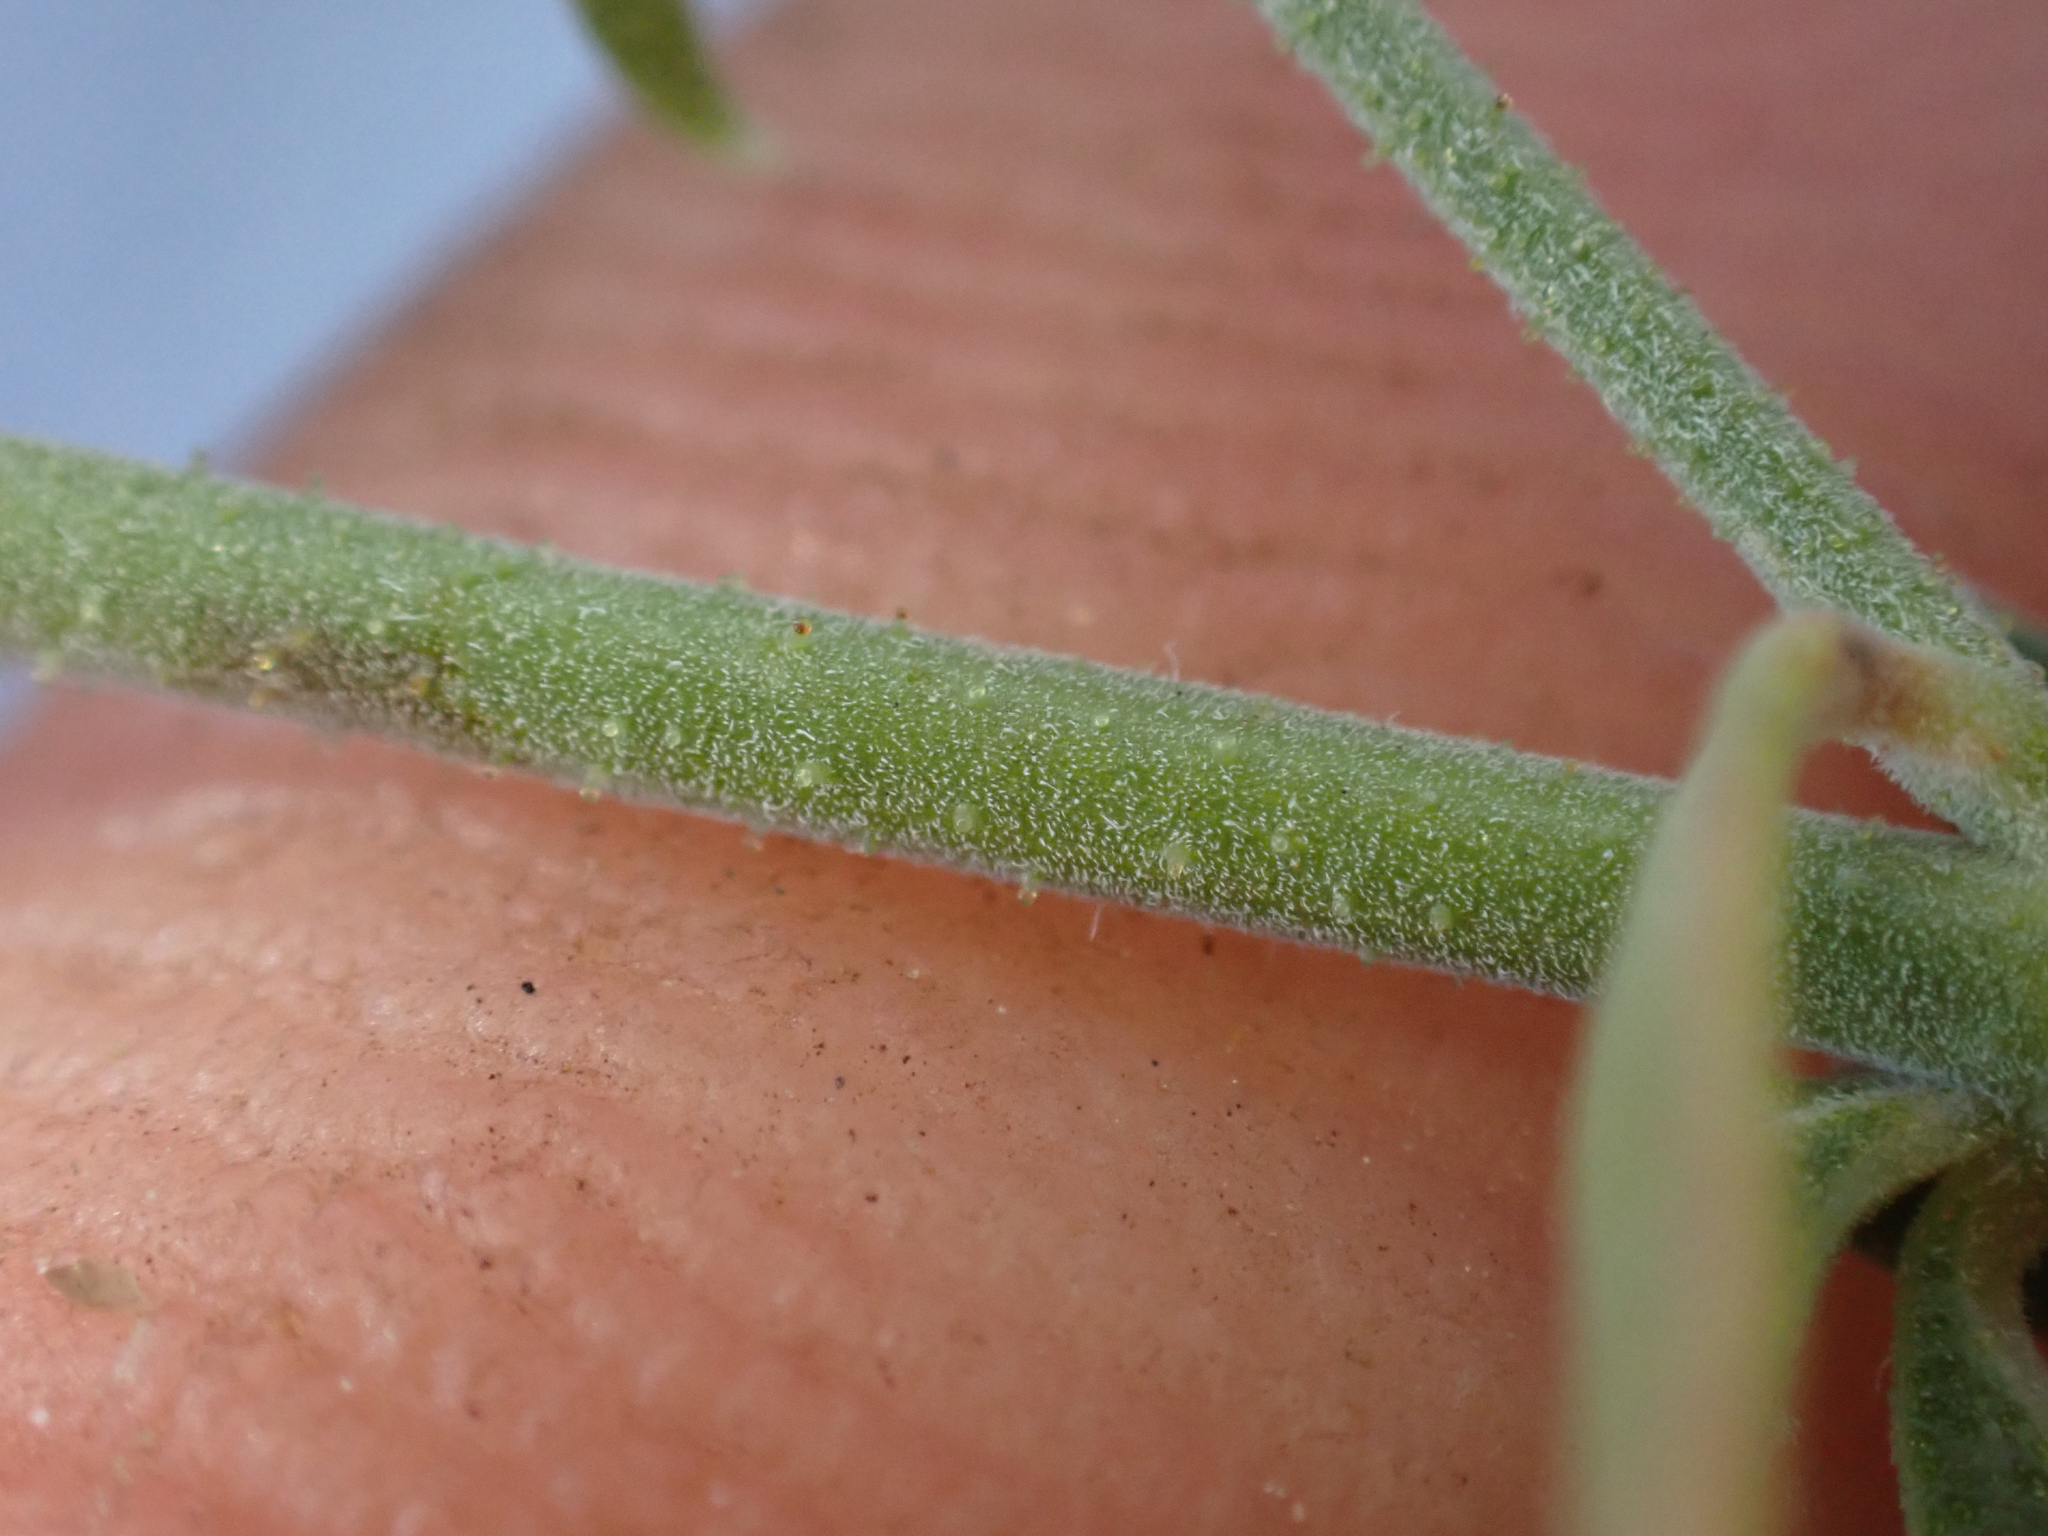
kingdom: Plantae
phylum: Tracheophyta
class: Magnoliopsida
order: Lamiales
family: Lamiaceae
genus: Monardella
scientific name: Monardella eremicola
